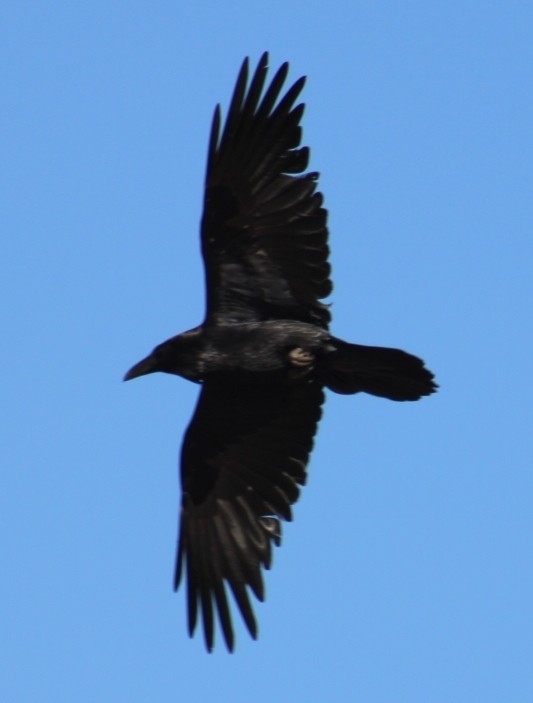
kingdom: Animalia
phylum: Chordata
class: Aves
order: Passeriformes
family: Corvidae
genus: Corvus
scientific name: Corvus corax
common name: Common raven
